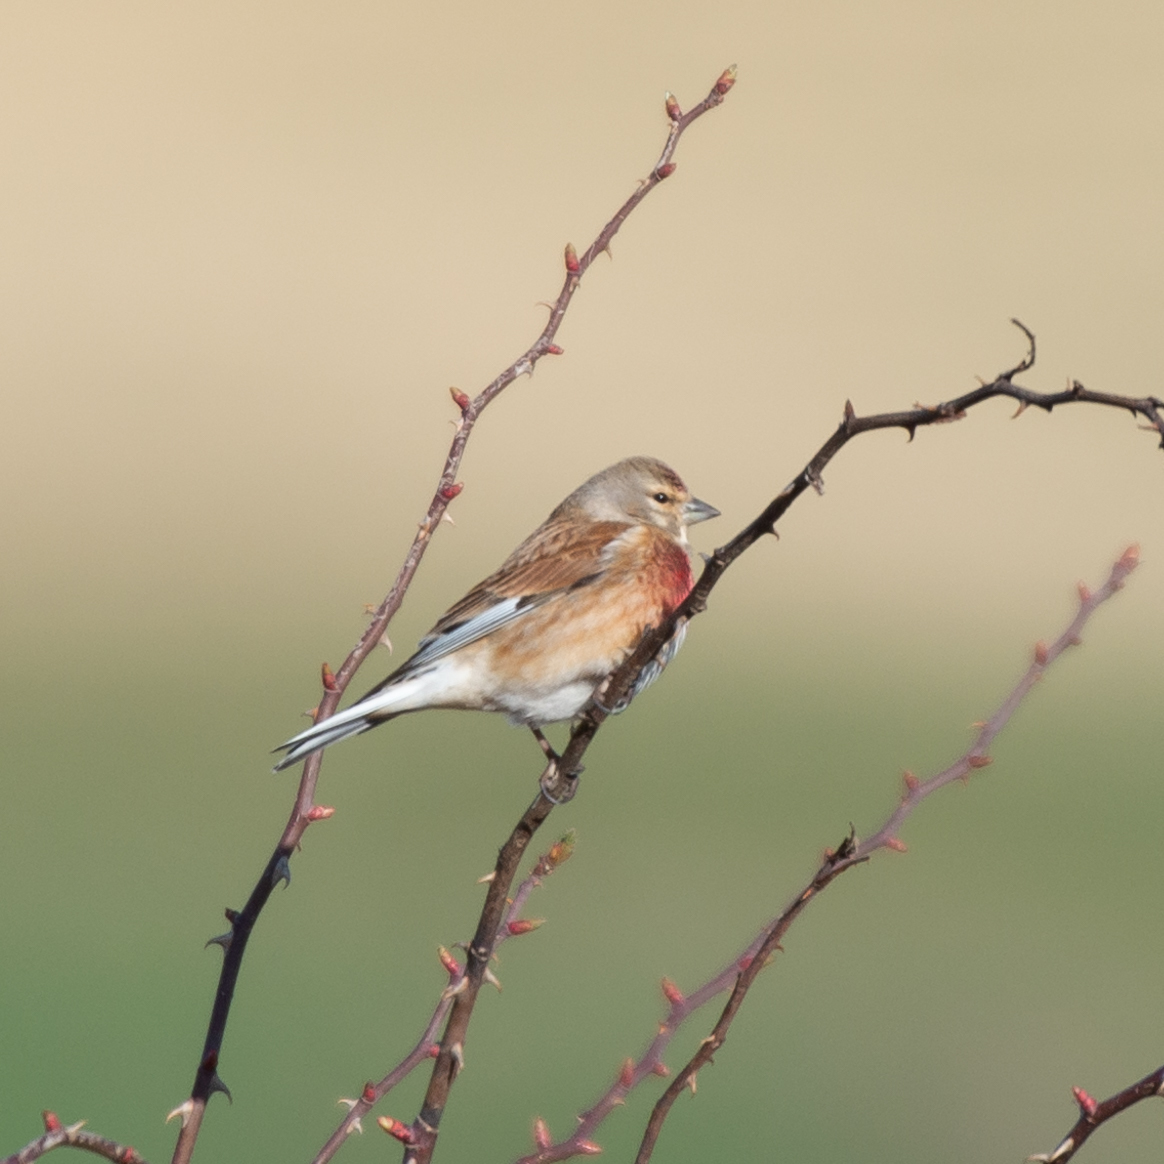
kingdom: Animalia
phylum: Chordata
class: Aves
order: Passeriformes
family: Fringillidae
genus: Linaria
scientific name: Linaria cannabina
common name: Common linnet
